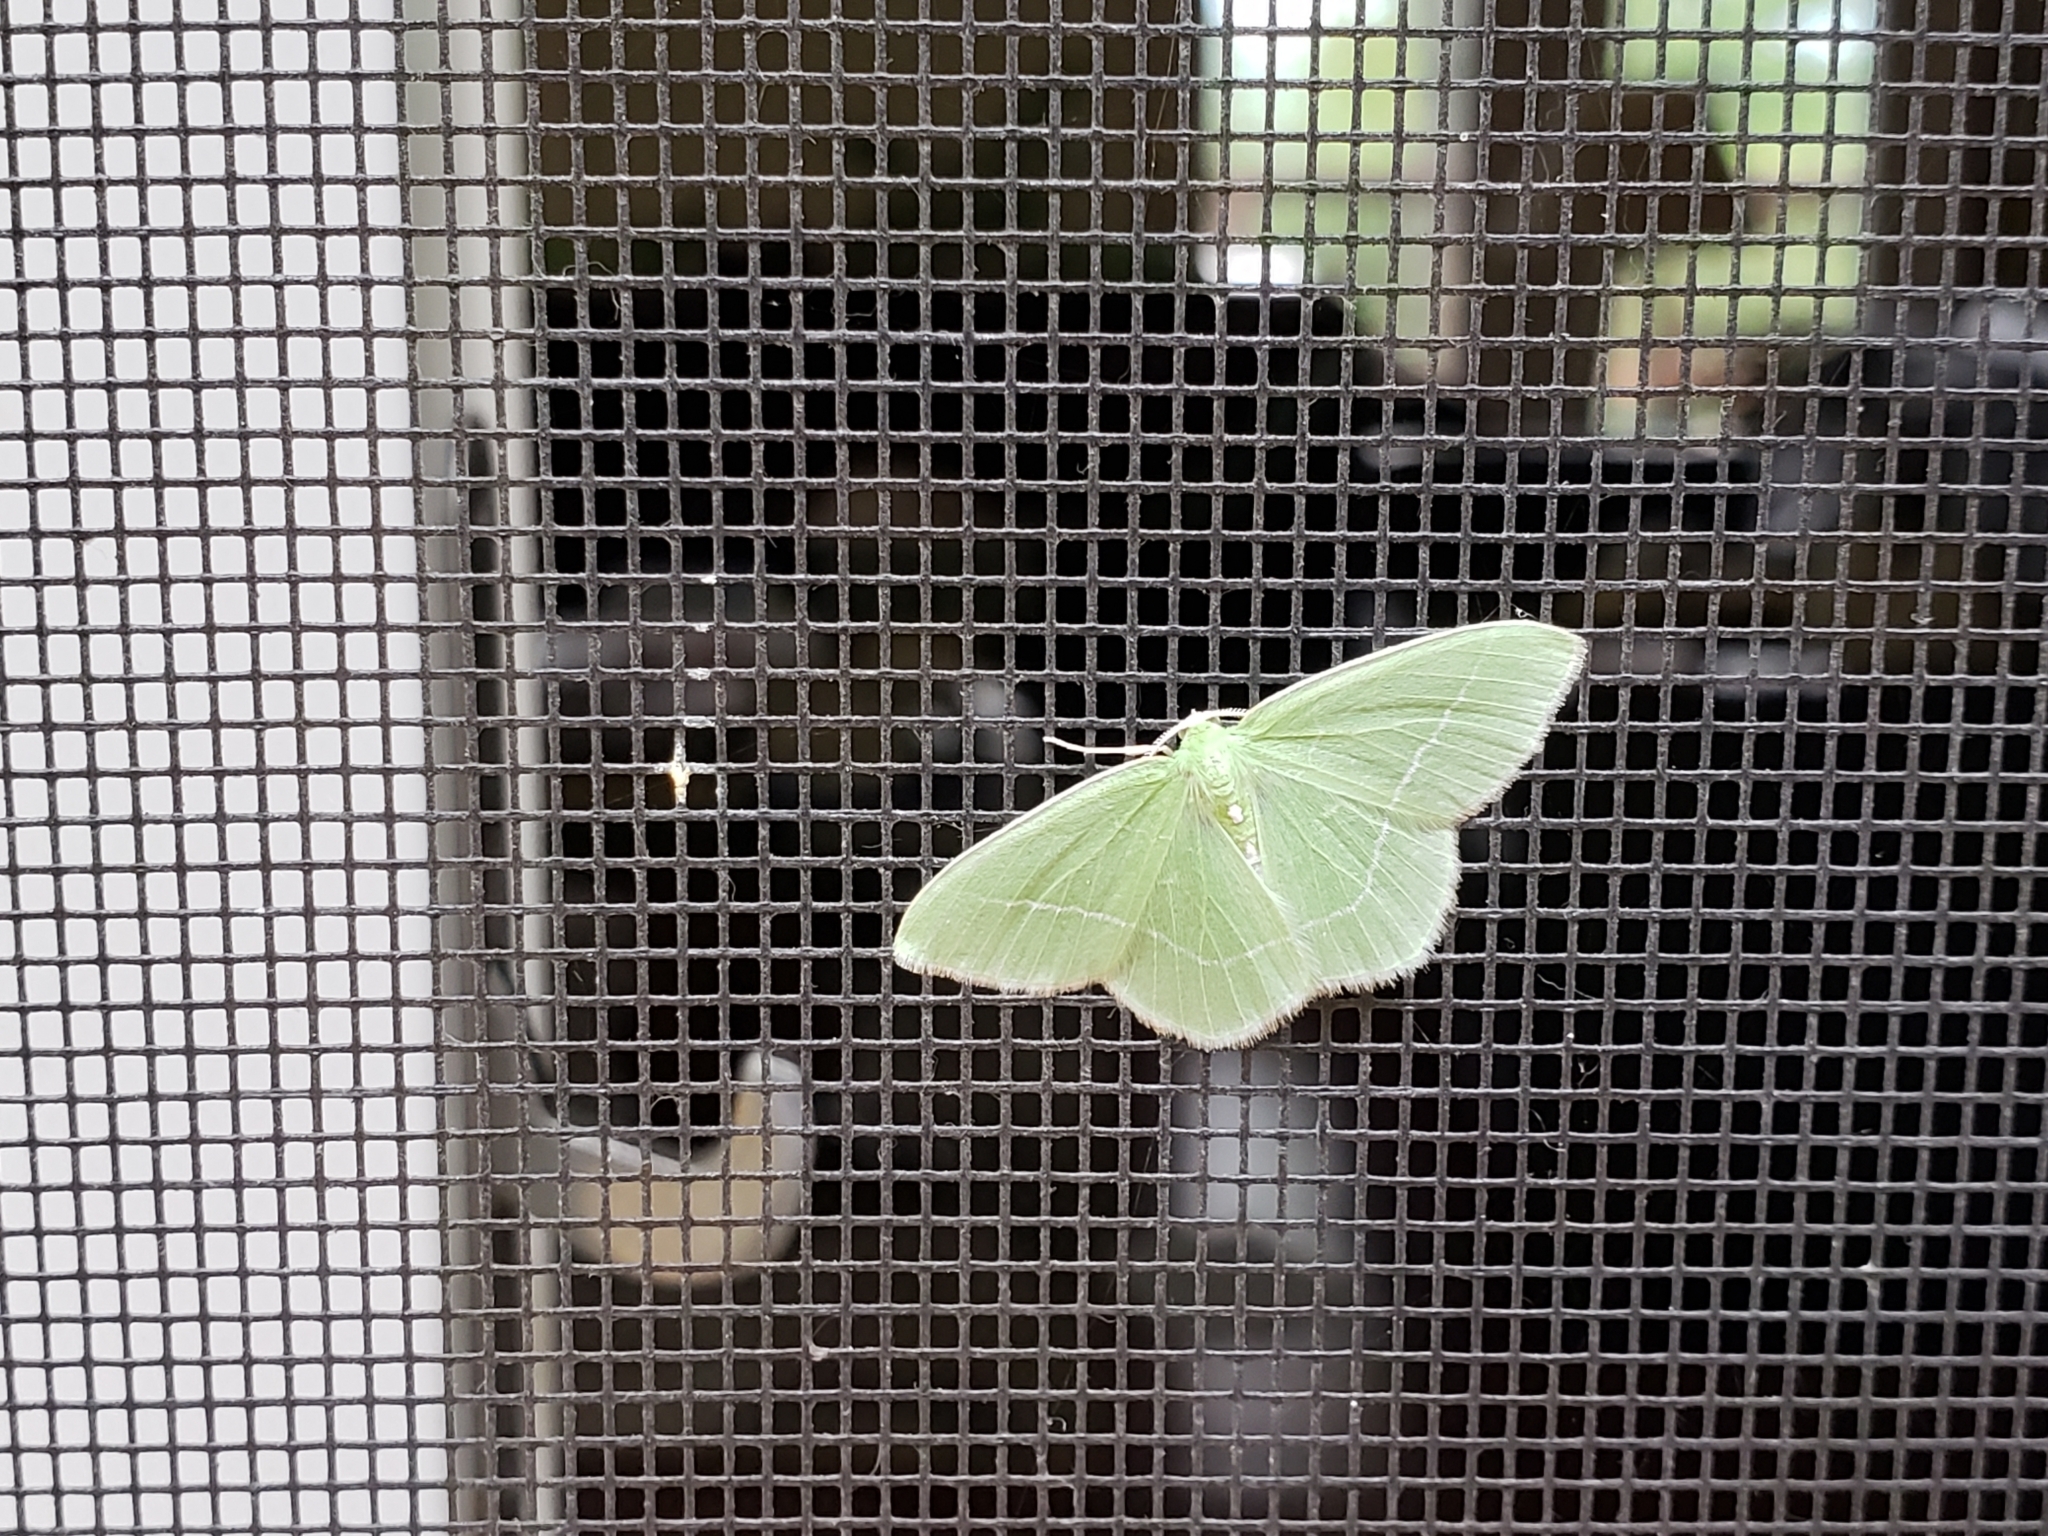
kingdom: Animalia
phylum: Arthropoda
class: Insecta
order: Lepidoptera
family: Geometridae
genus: Nemoria
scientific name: Nemoria mimosaria
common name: White-fringed emerald
